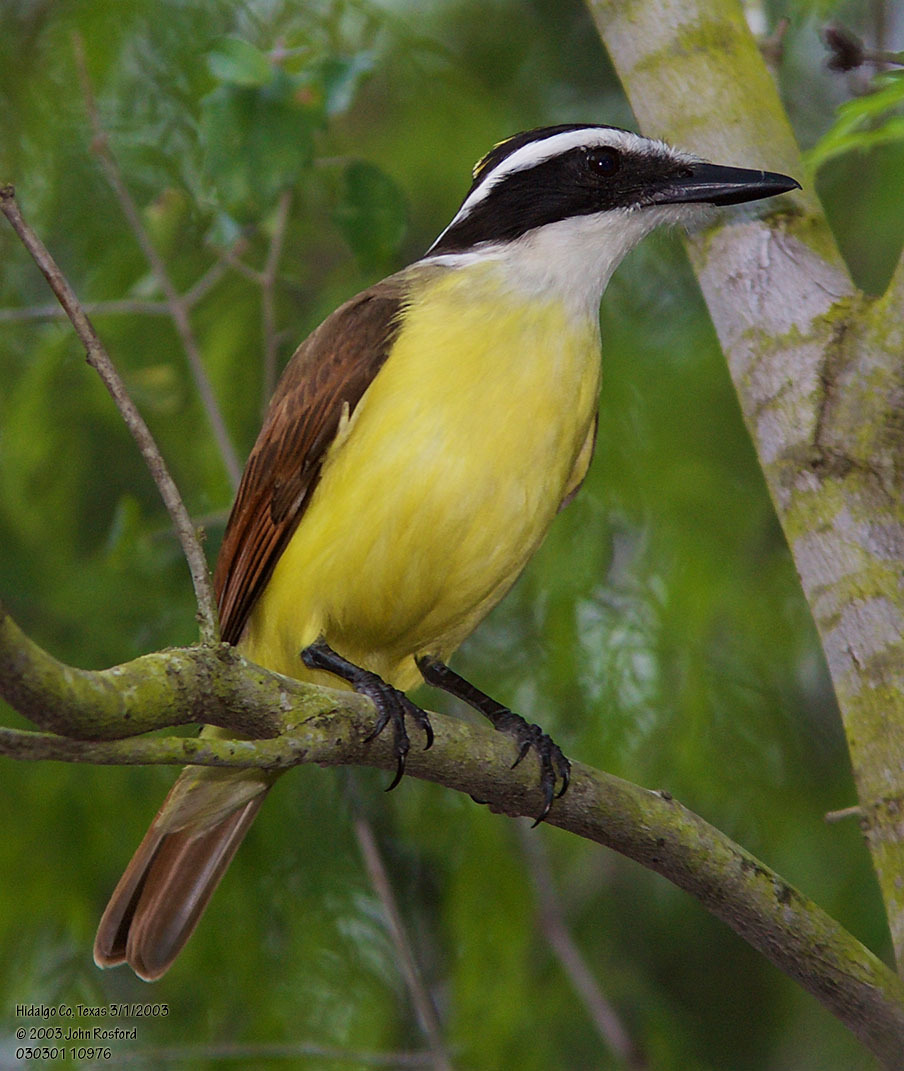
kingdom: Animalia
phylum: Chordata
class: Aves
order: Passeriformes
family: Tyrannidae
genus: Pitangus
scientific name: Pitangus sulphuratus
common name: Great kiskadee
